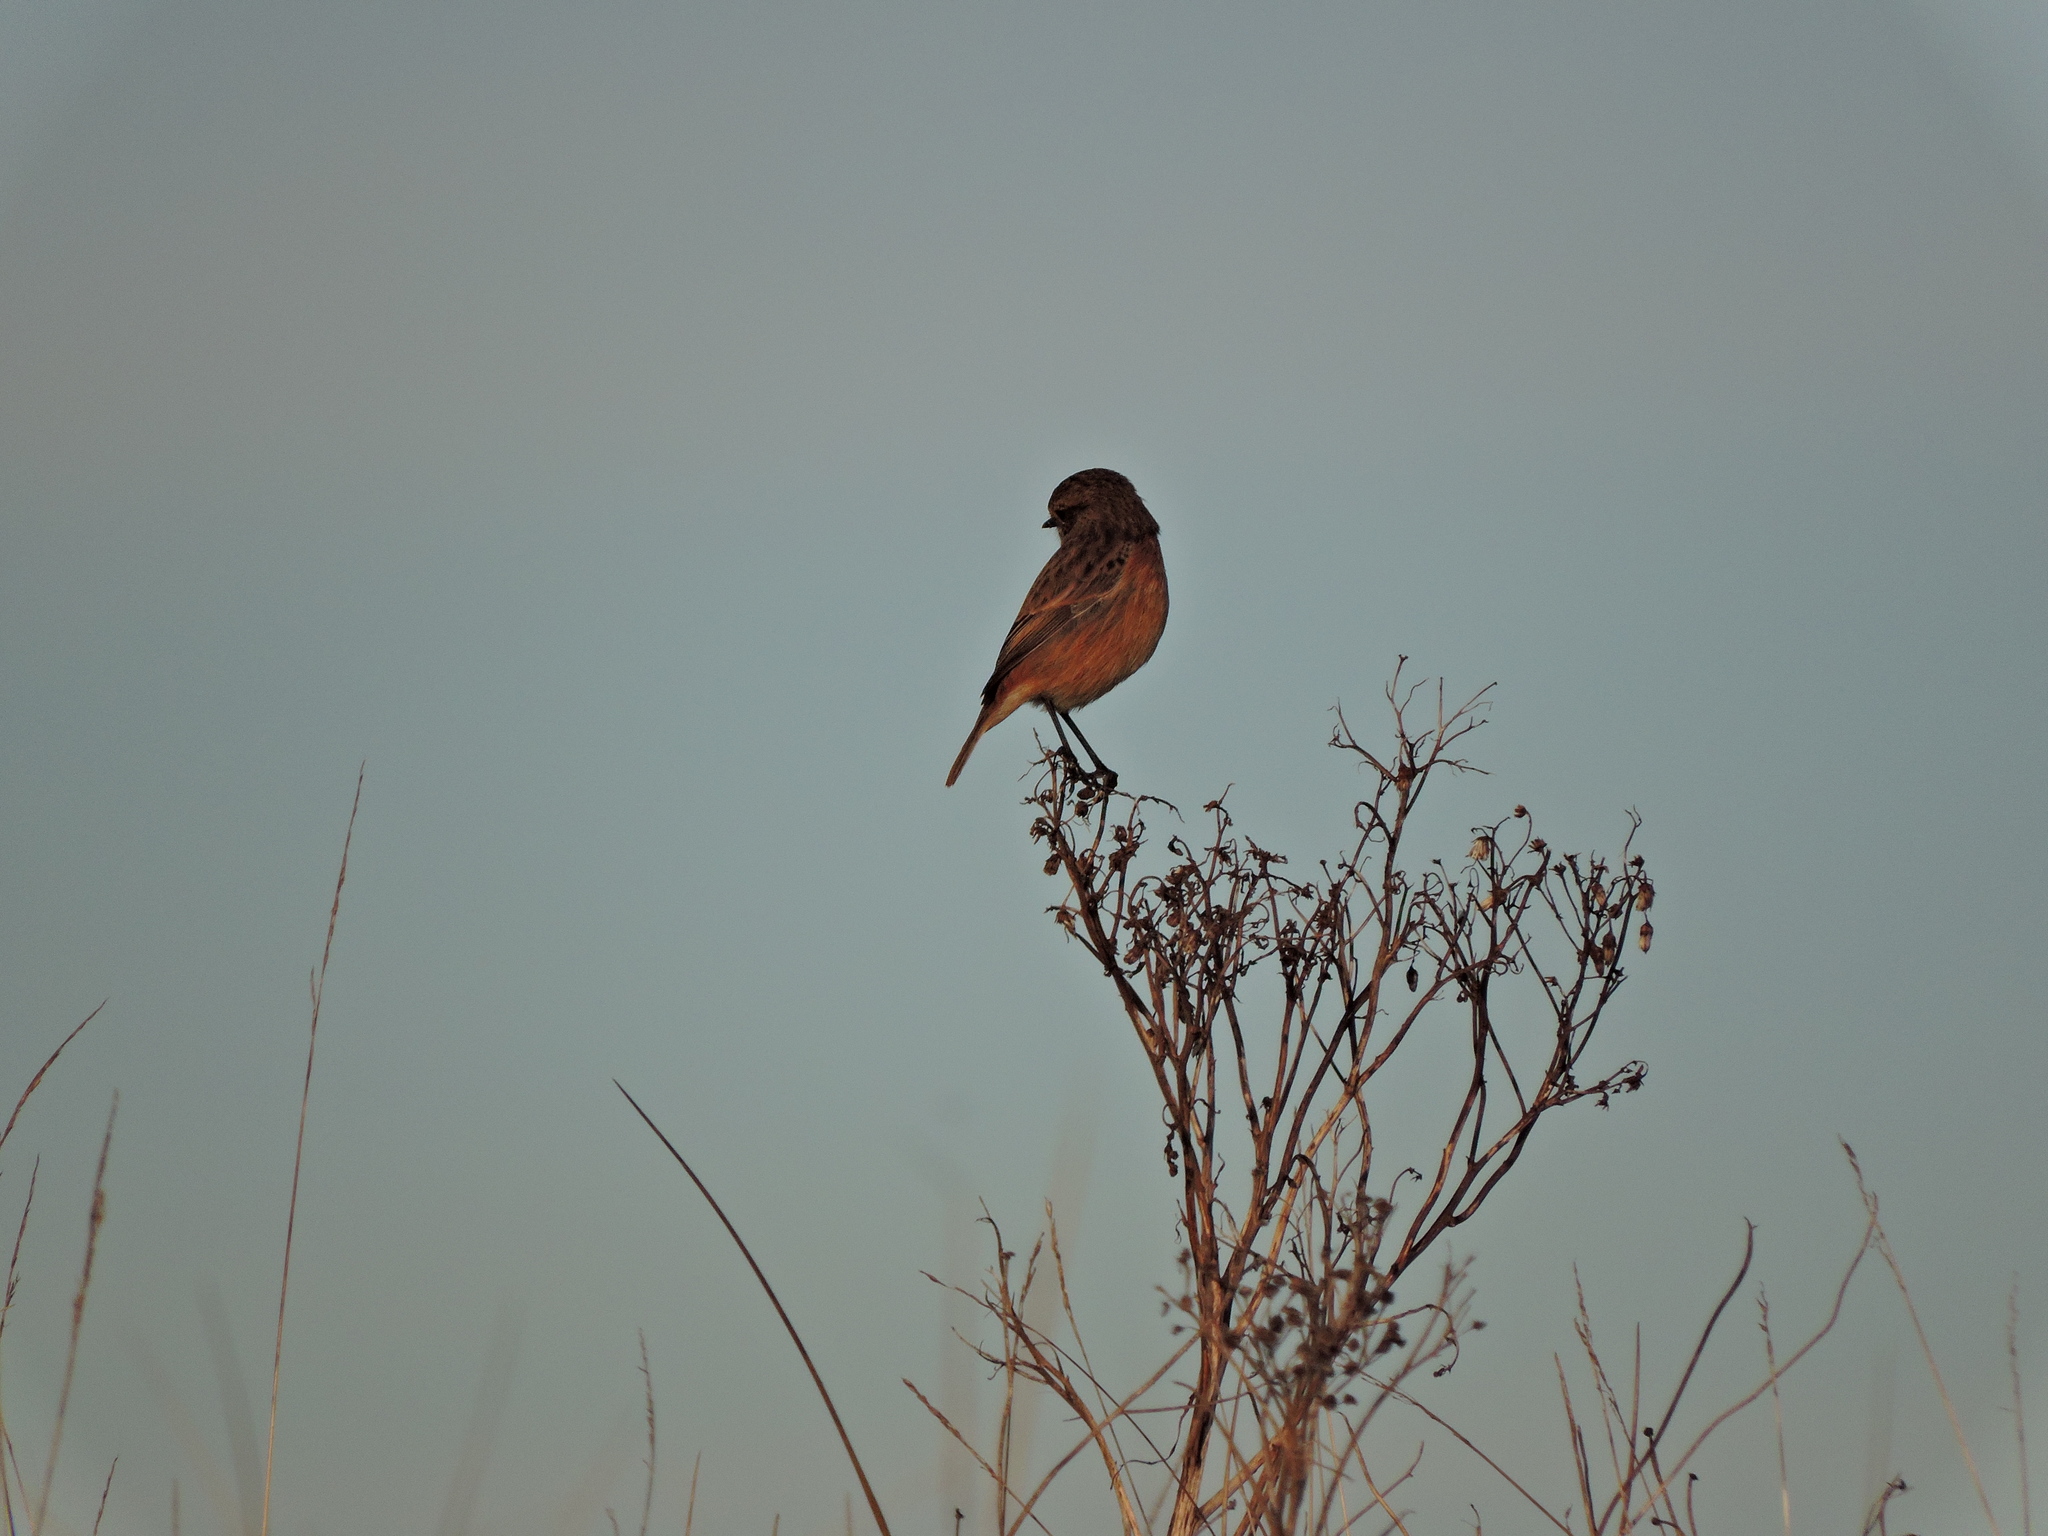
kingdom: Animalia
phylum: Chordata
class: Aves
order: Passeriformes
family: Muscicapidae
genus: Saxicola
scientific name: Saxicola rubicola
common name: European stonechat
